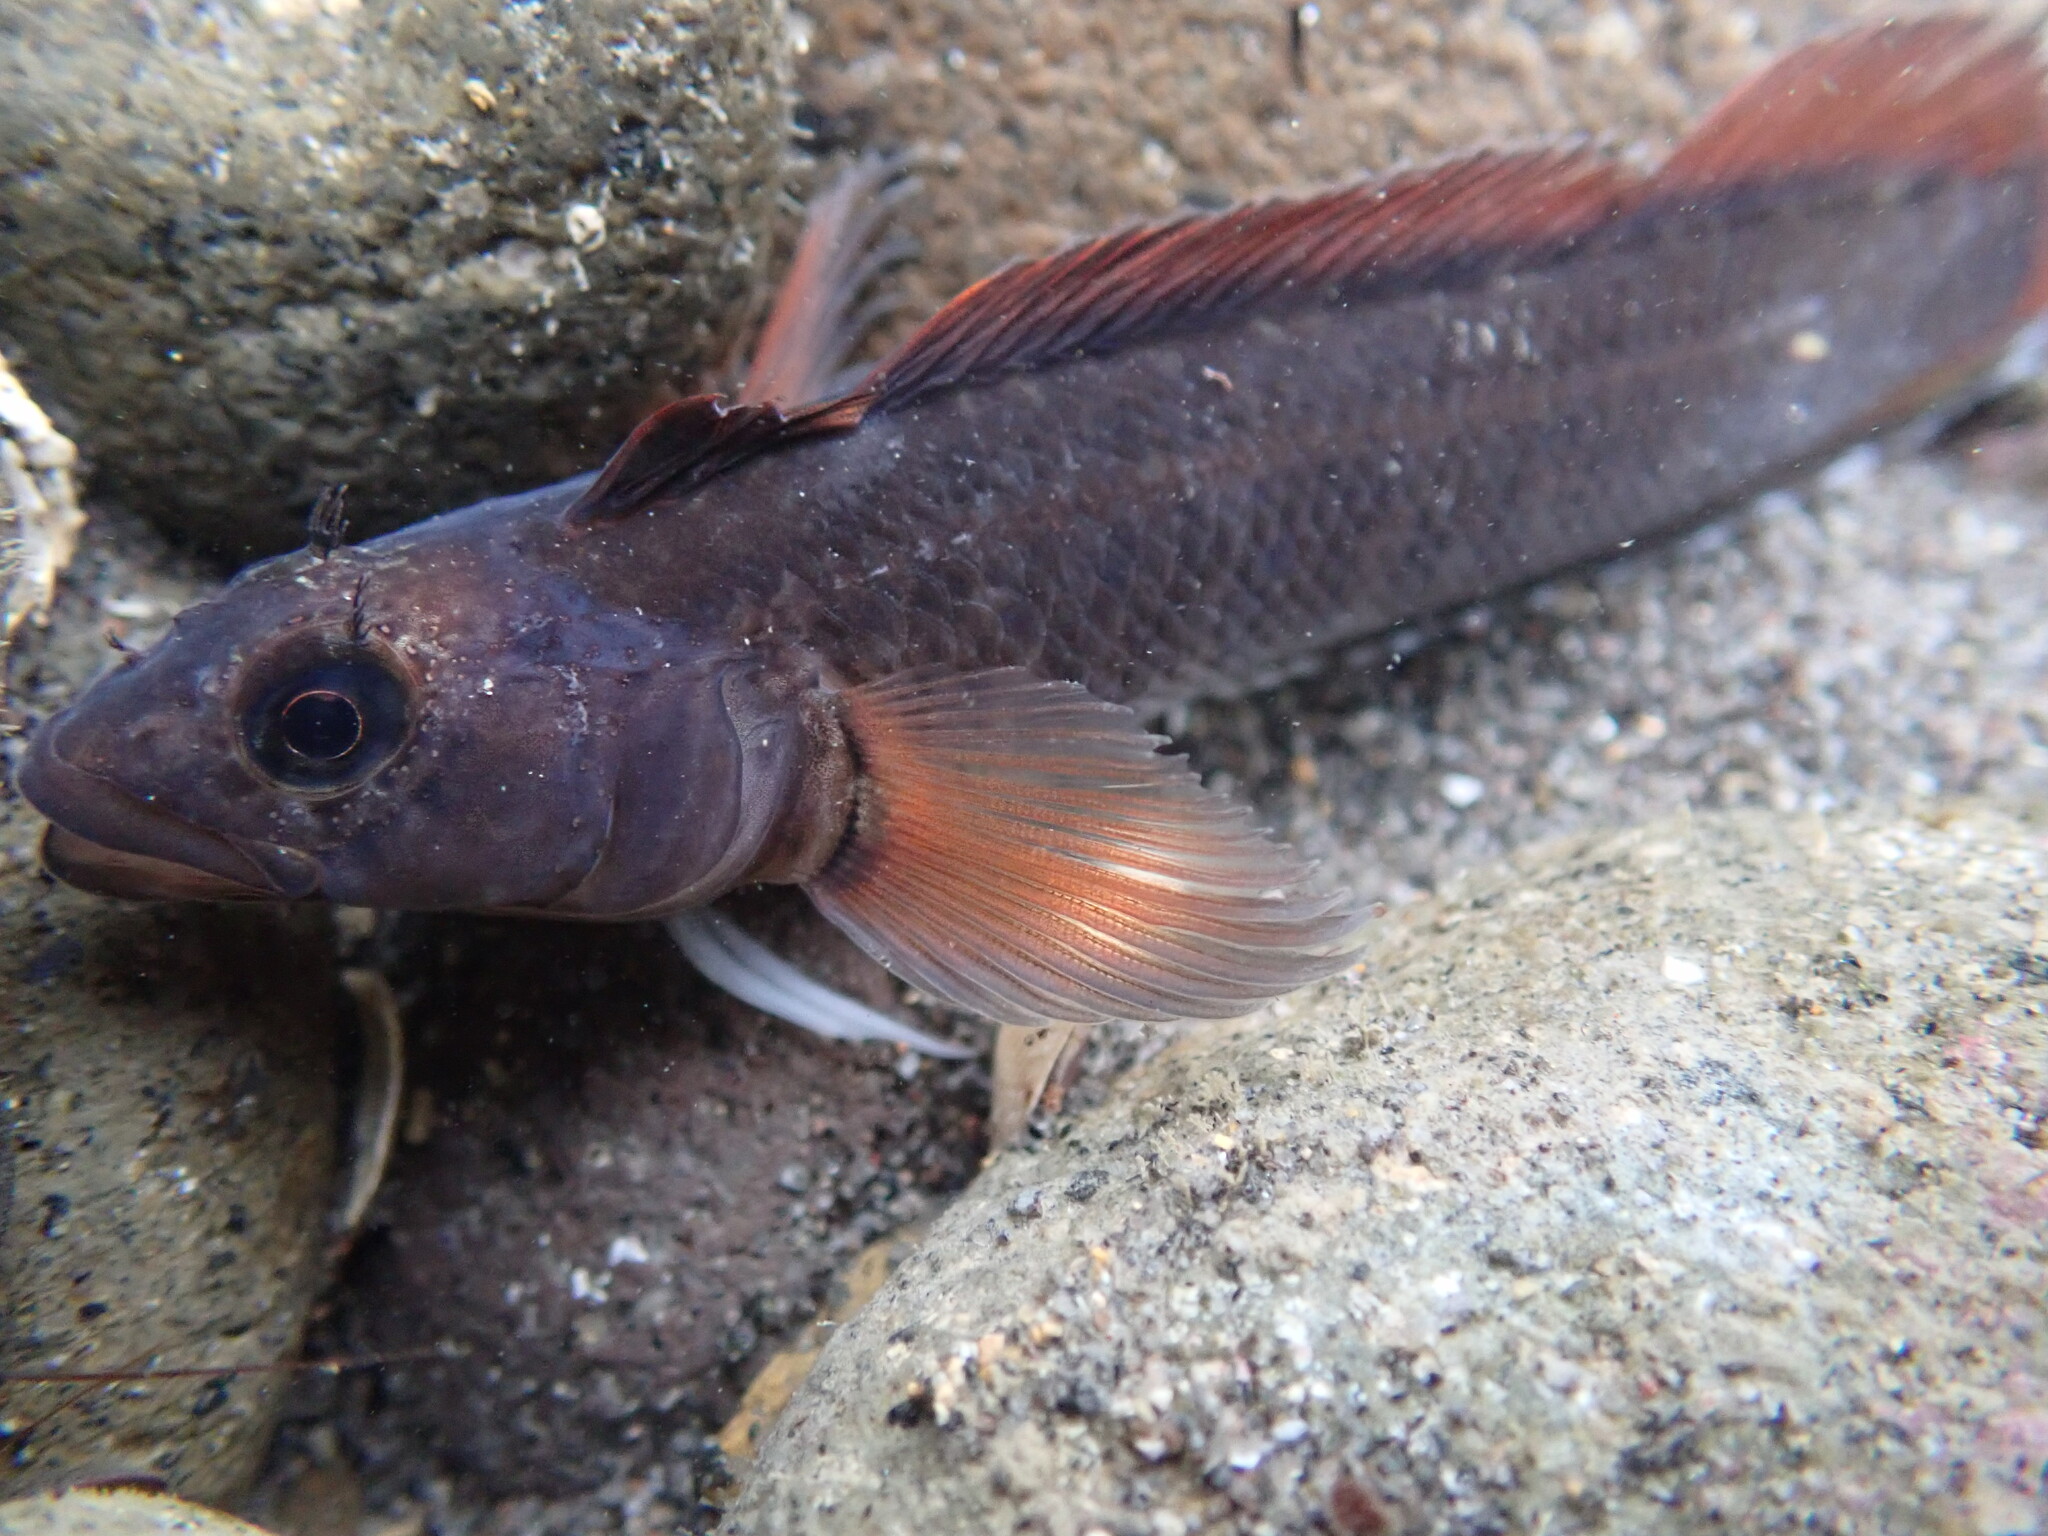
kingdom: Animalia
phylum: Chordata
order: Perciformes
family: Tripterygiidae
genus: Ruanoho
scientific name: Ruanoho decemdigitatus
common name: Longfinned triplefin
